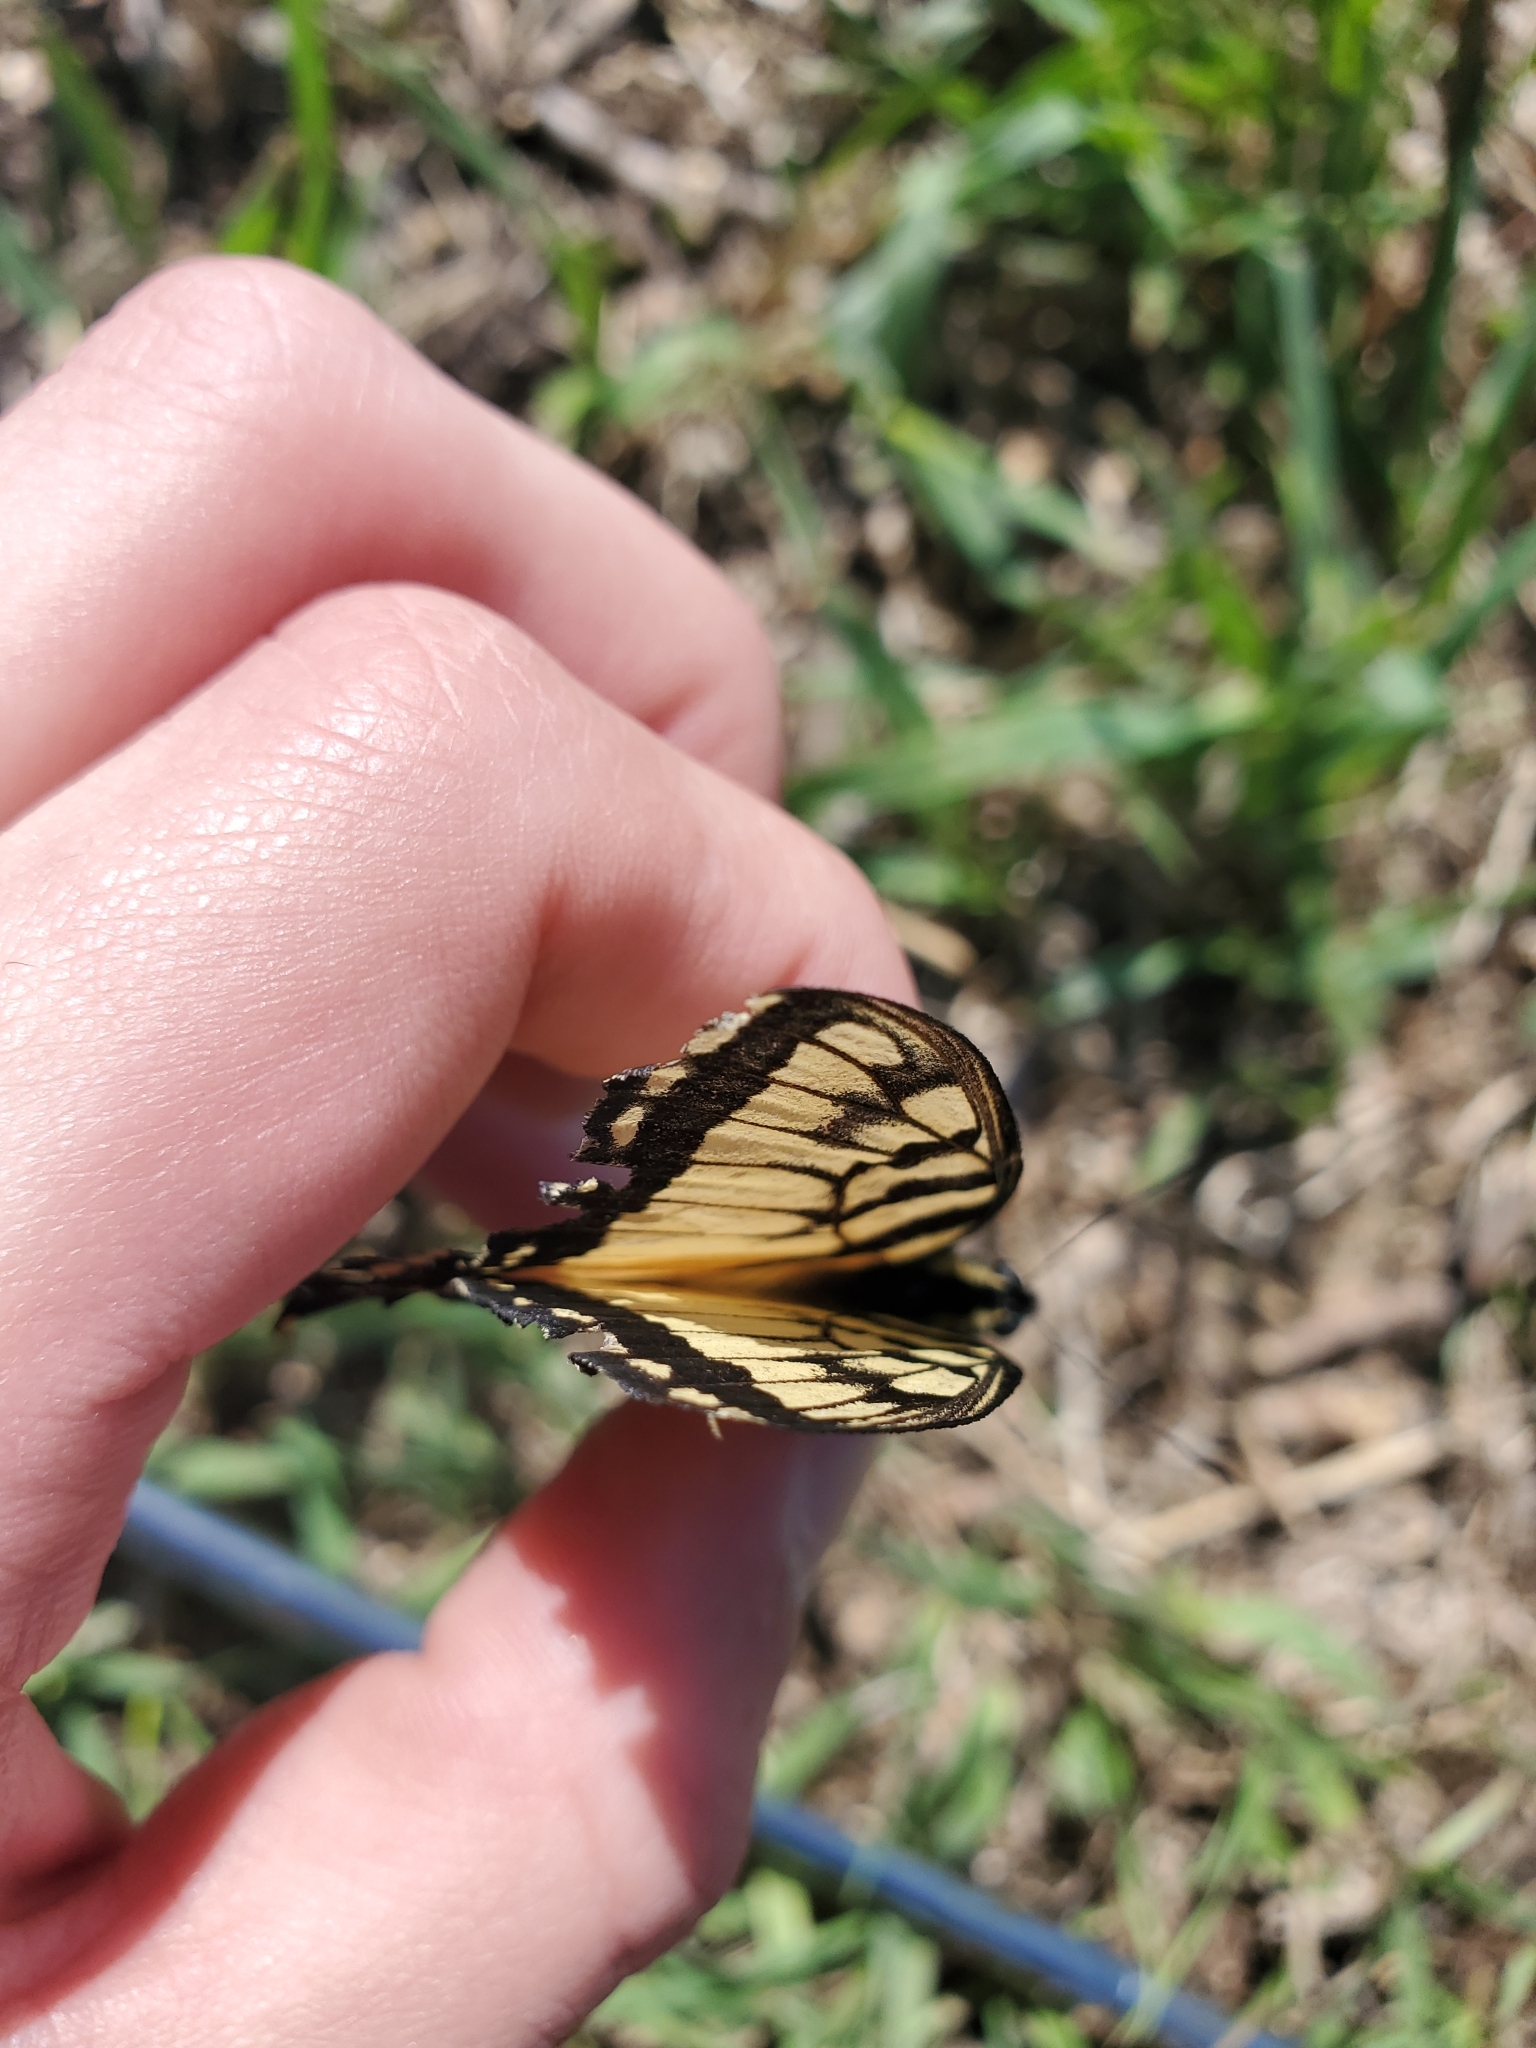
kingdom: Animalia
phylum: Arthropoda
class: Insecta
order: Lepidoptera
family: Papilionidae
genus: Papilio
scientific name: Papilio glaucus
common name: Tiger swallowtail
